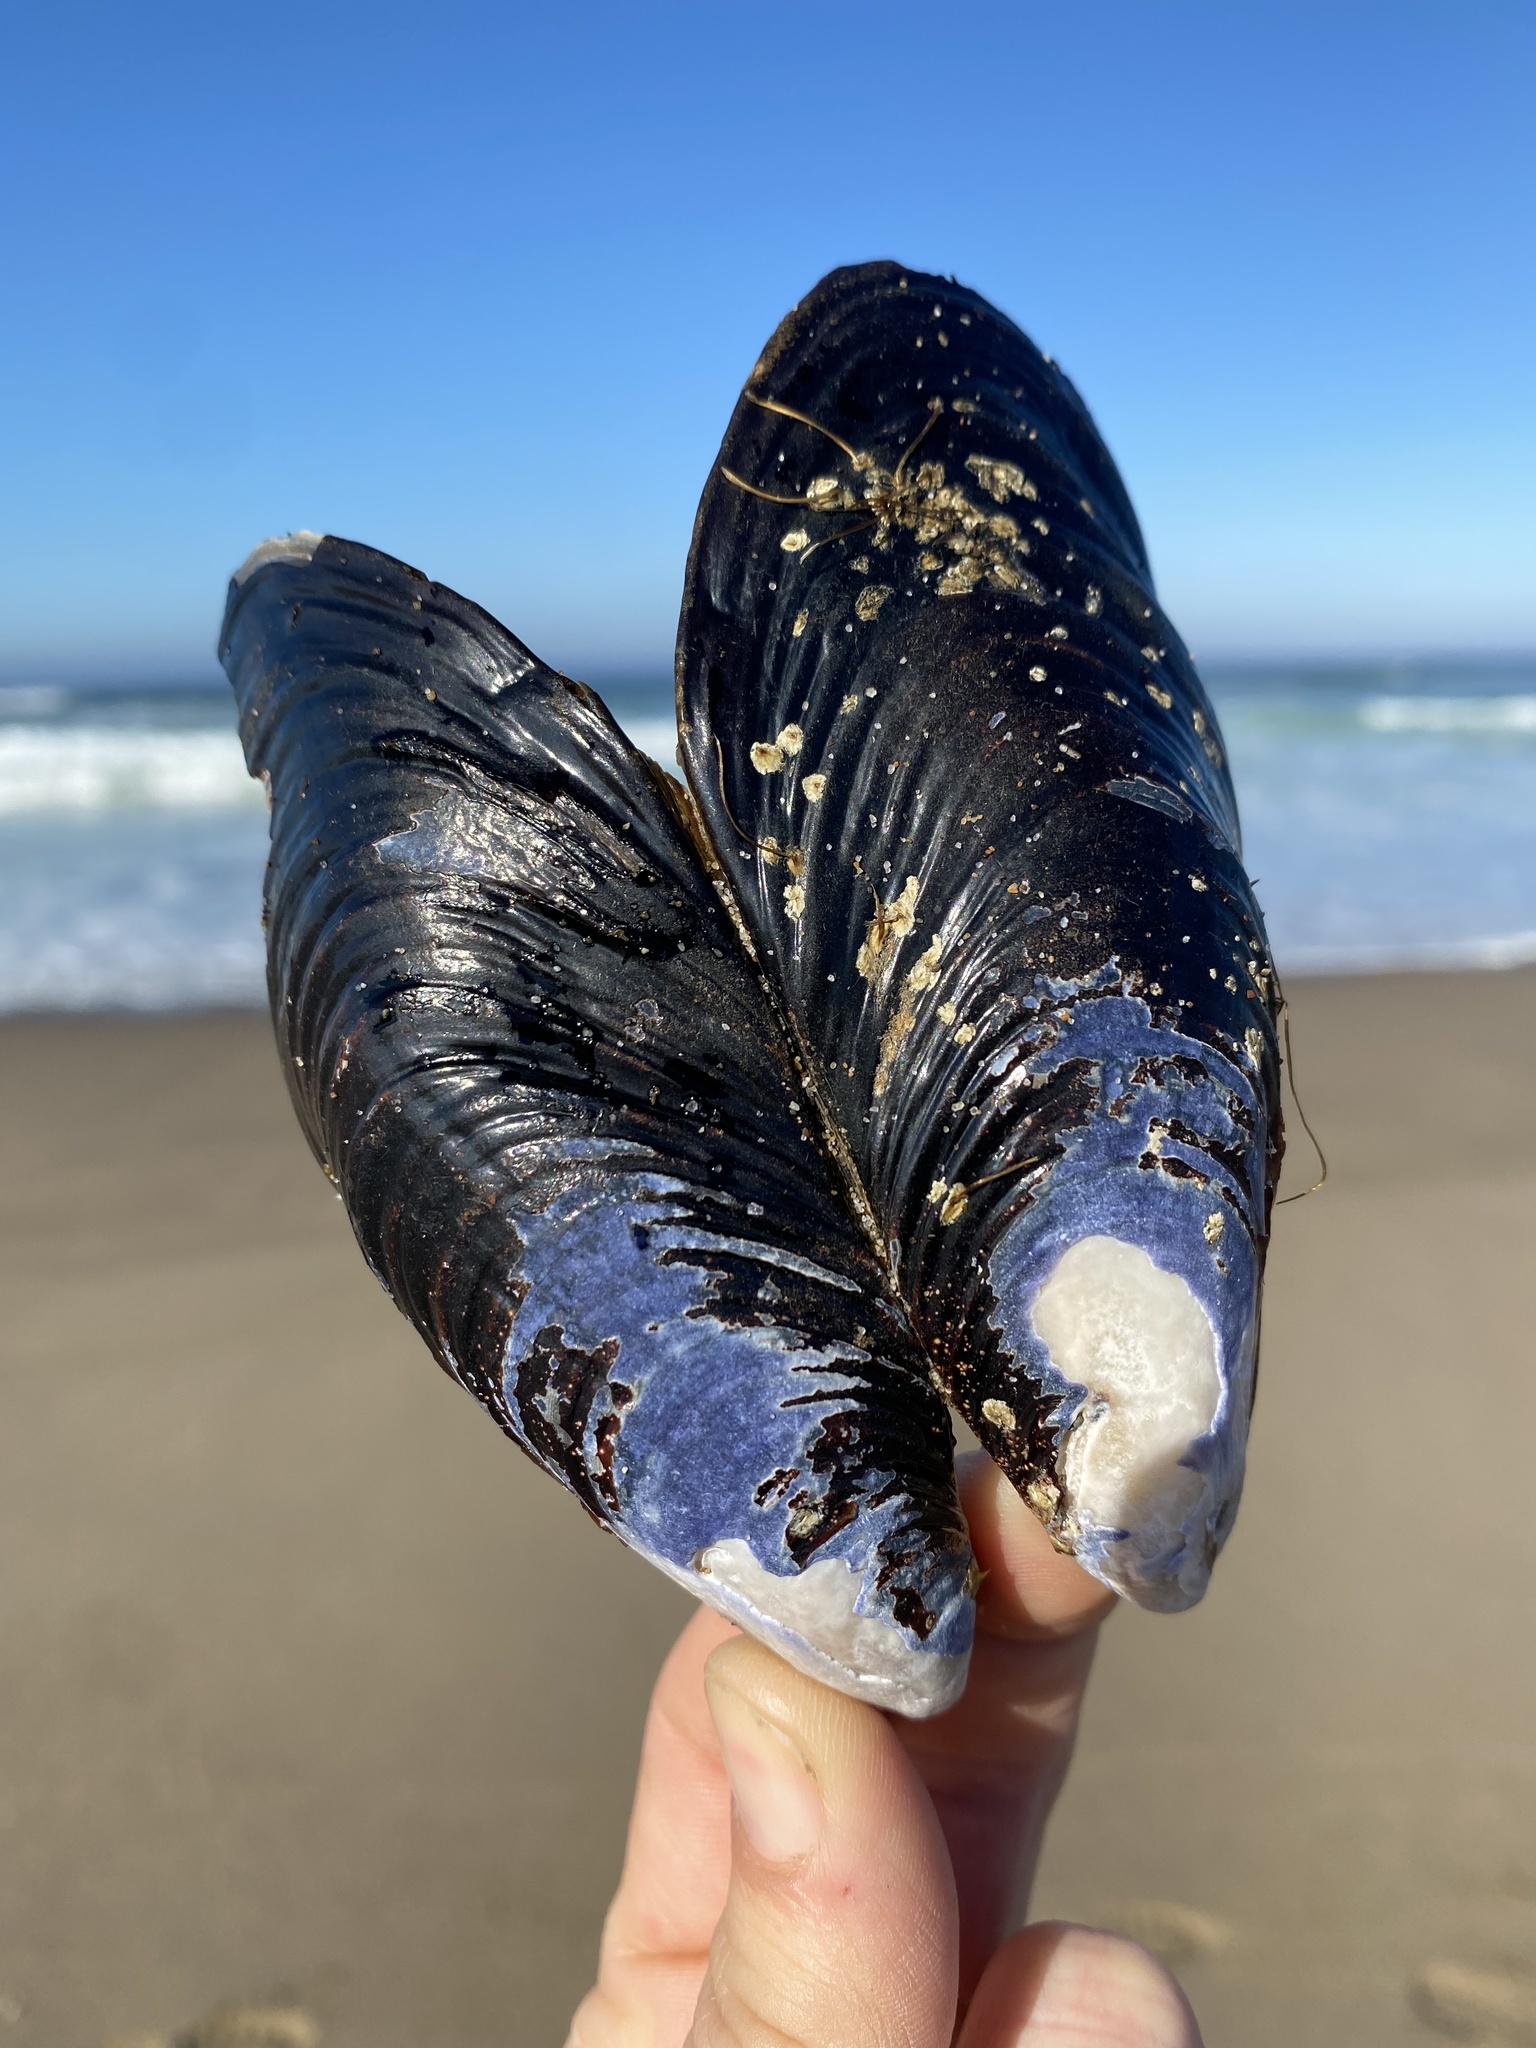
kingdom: Animalia
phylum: Mollusca
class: Bivalvia
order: Mytilida
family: Mytilidae
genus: Mytilus
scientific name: Mytilus californianus
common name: California mussel
